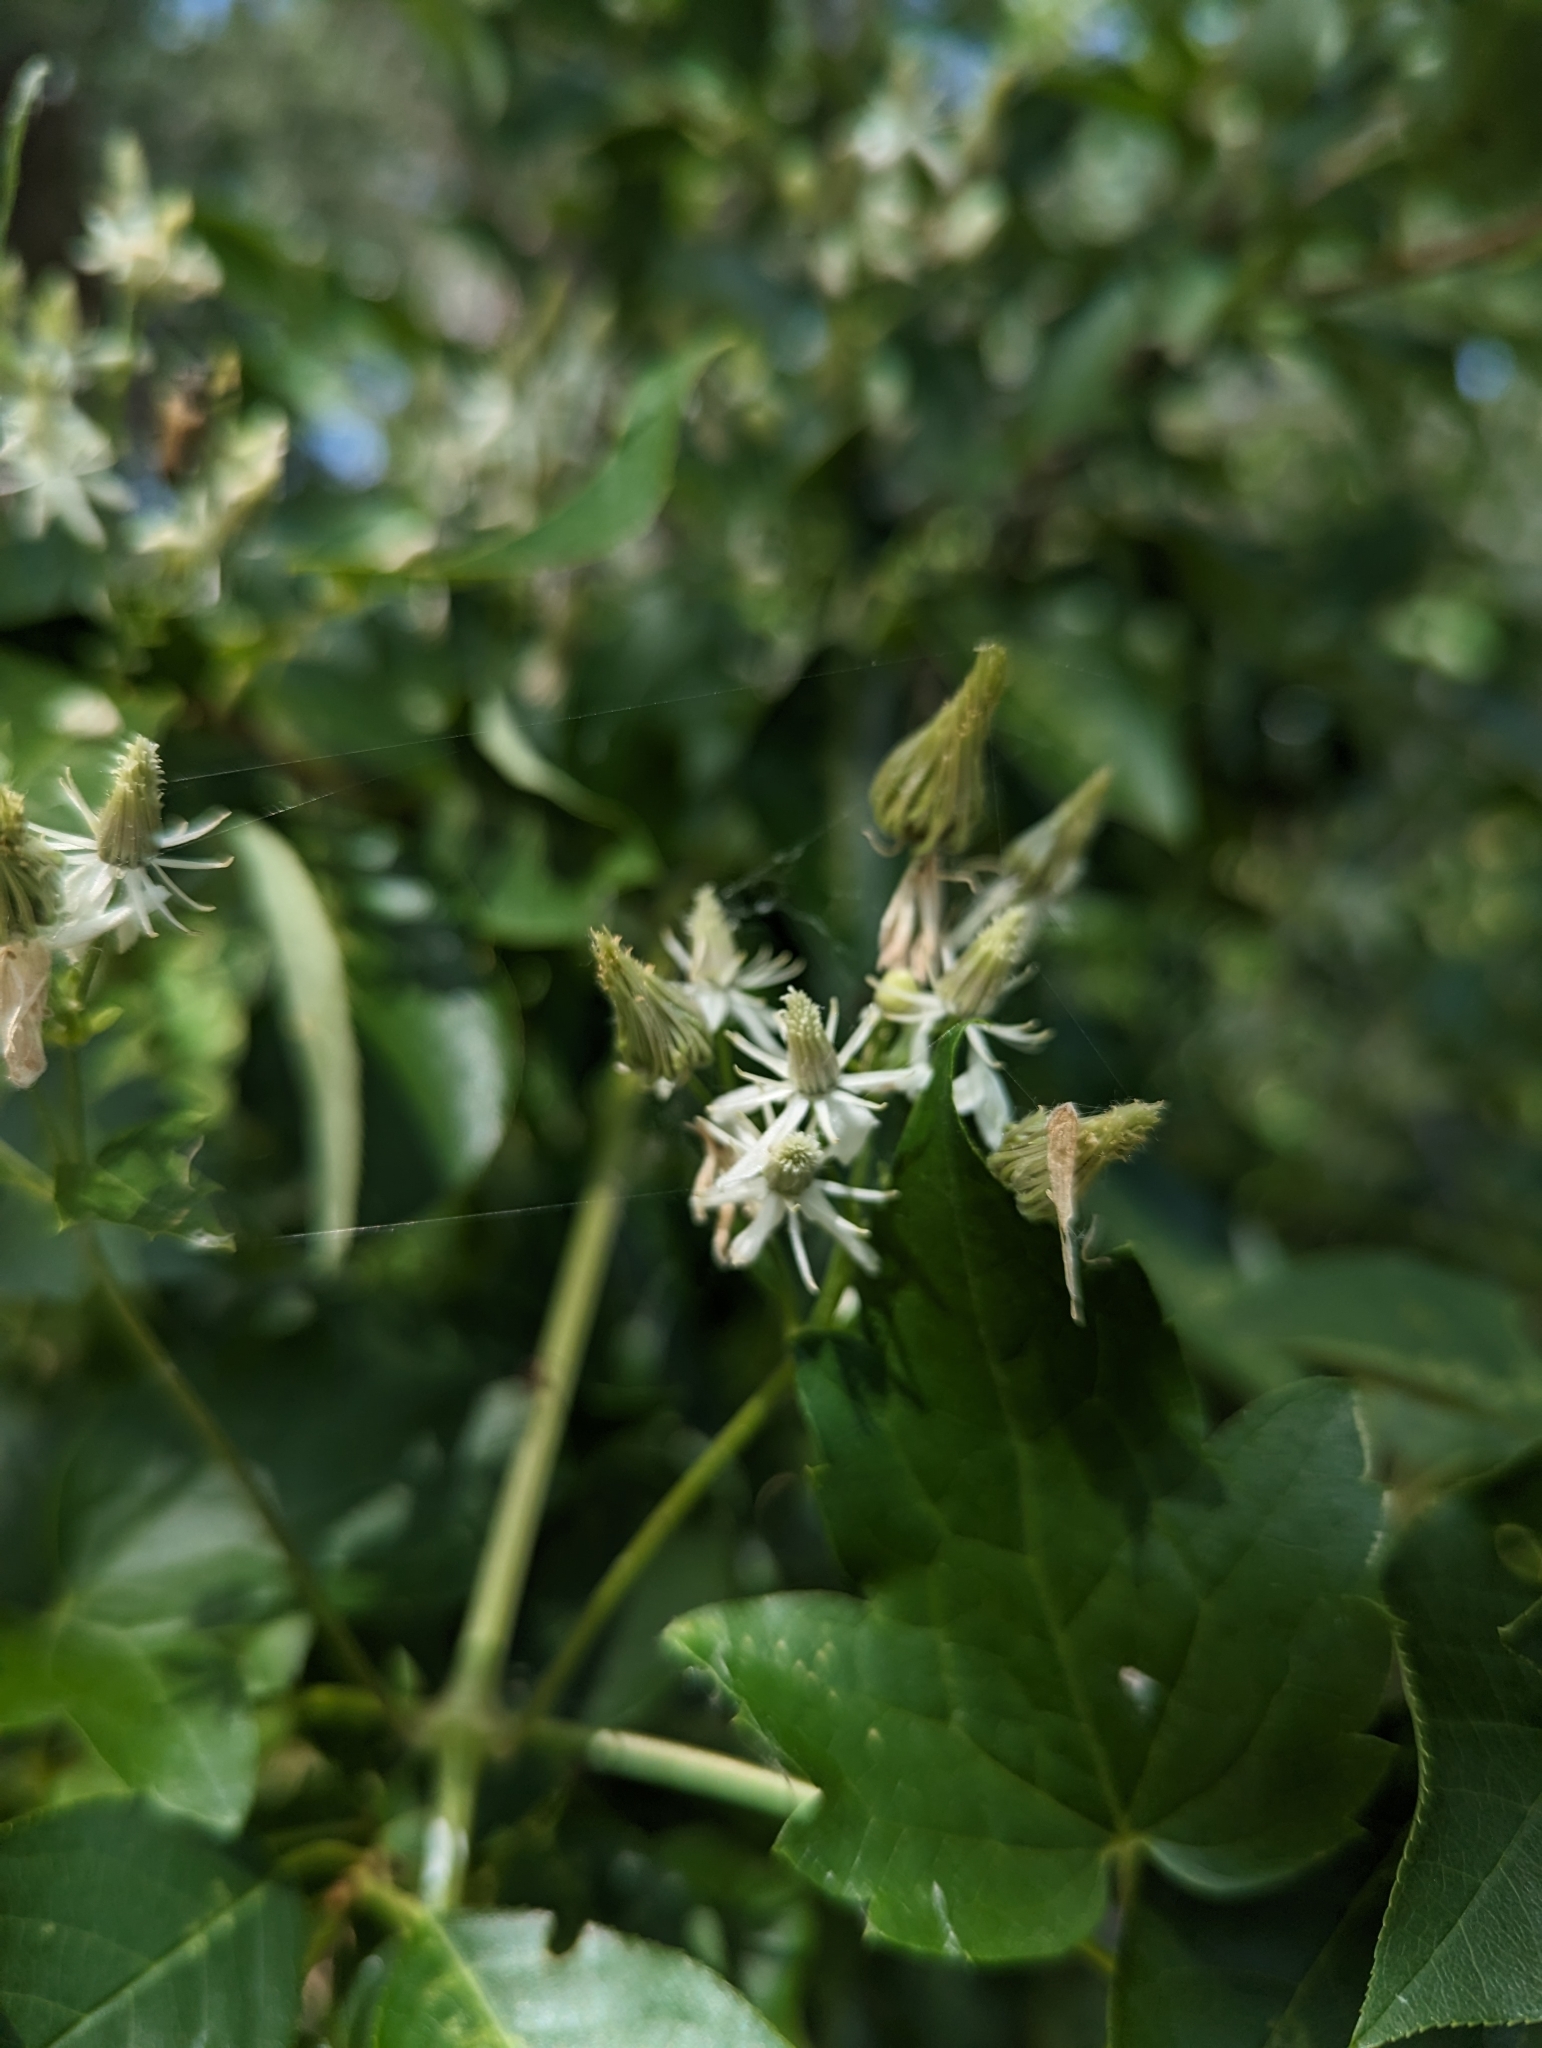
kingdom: Plantae
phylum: Tracheophyta
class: Magnoliopsida
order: Ranunculales
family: Ranunculaceae
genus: Clematis
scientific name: Clematis ligusticifolia
